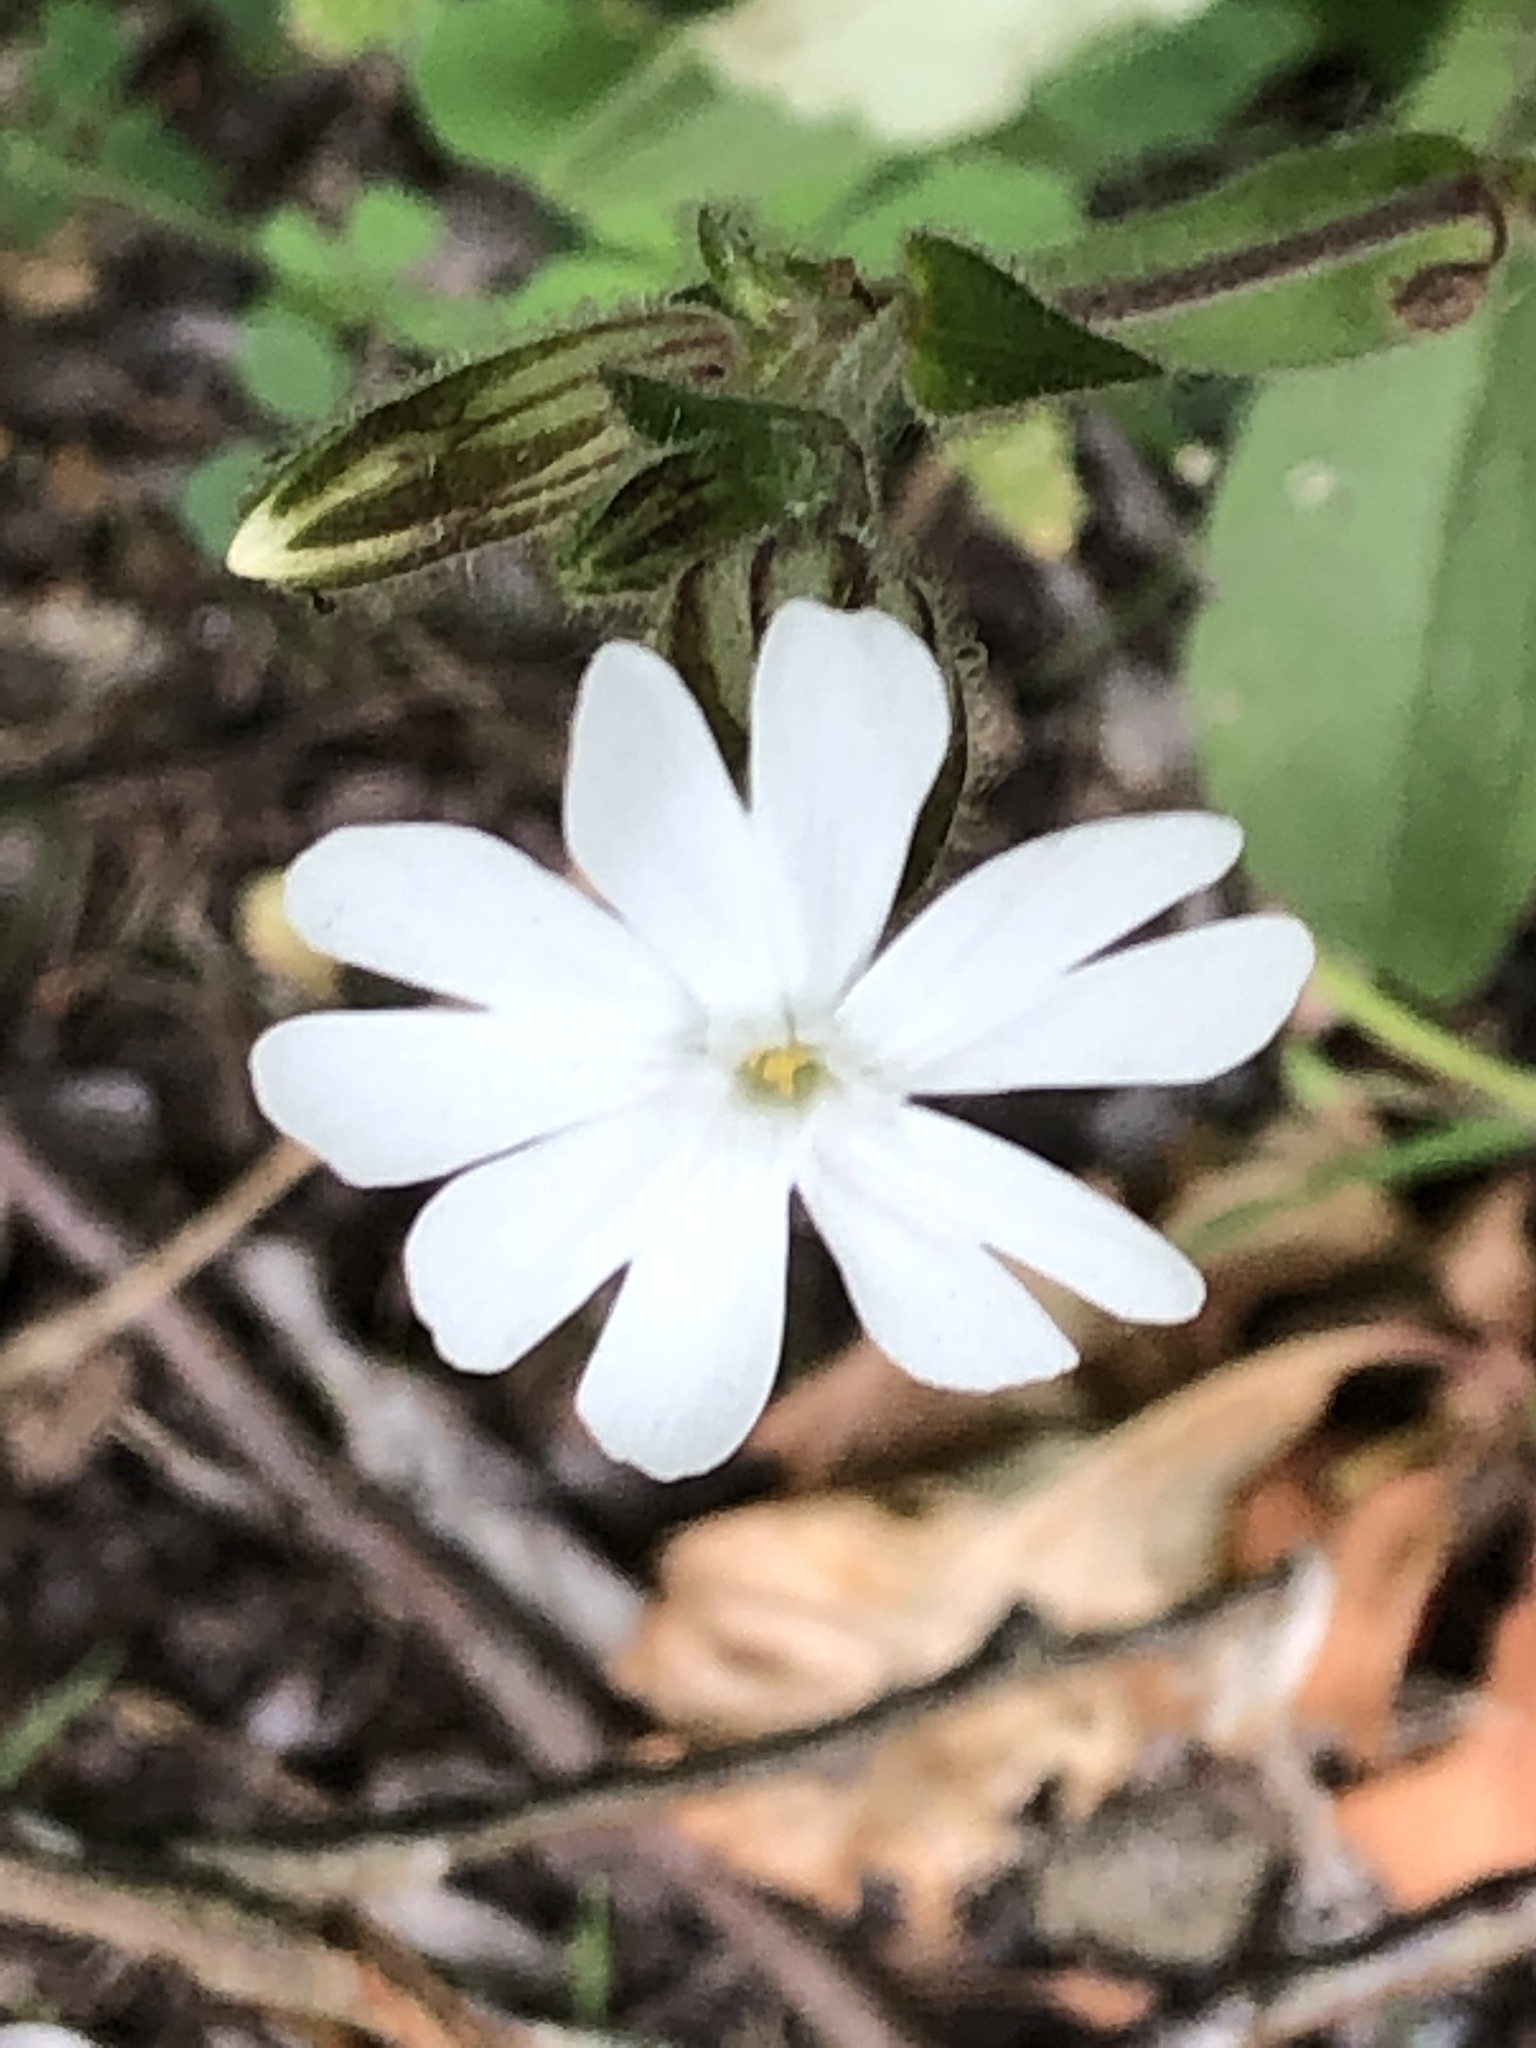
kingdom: Plantae
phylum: Tracheophyta
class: Magnoliopsida
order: Caryophyllales
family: Caryophyllaceae
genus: Silene
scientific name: Silene latifolia
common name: White campion
